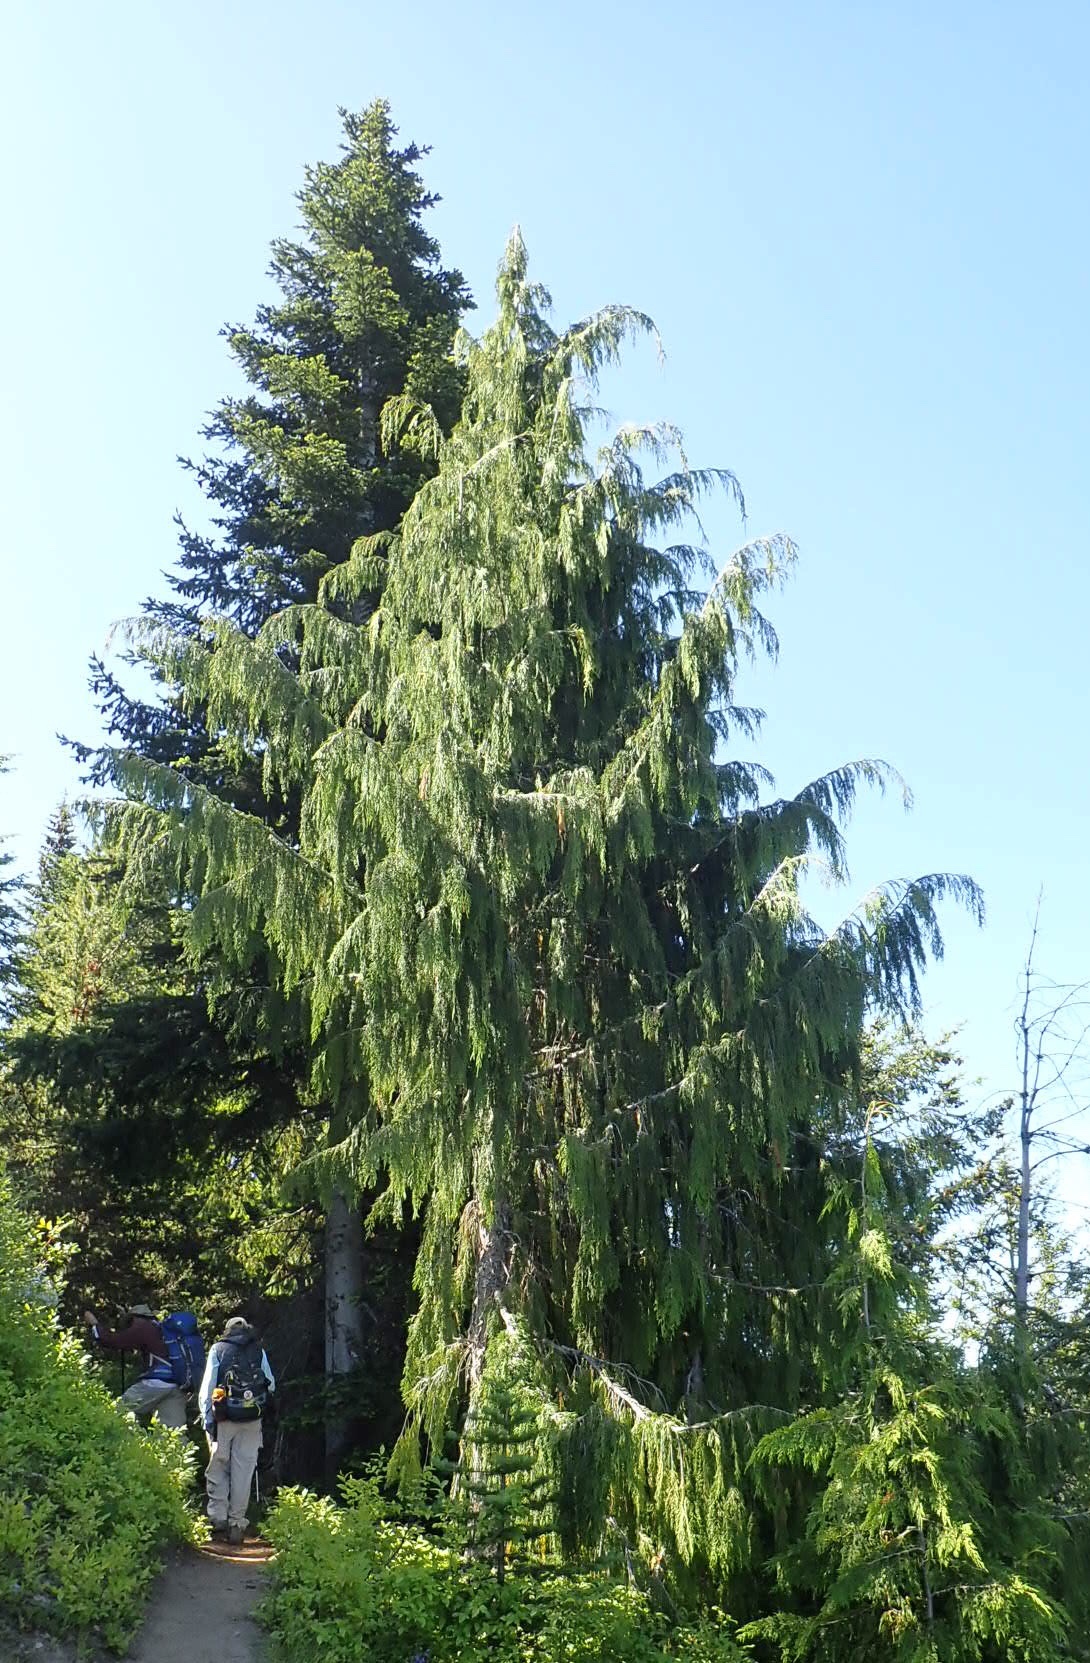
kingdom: Plantae
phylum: Tracheophyta
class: Pinopsida
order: Pinales
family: Cupressaceae
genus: Xanthocyparis
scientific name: Xanthocyparis nootkatensis
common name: Nootka cypress
